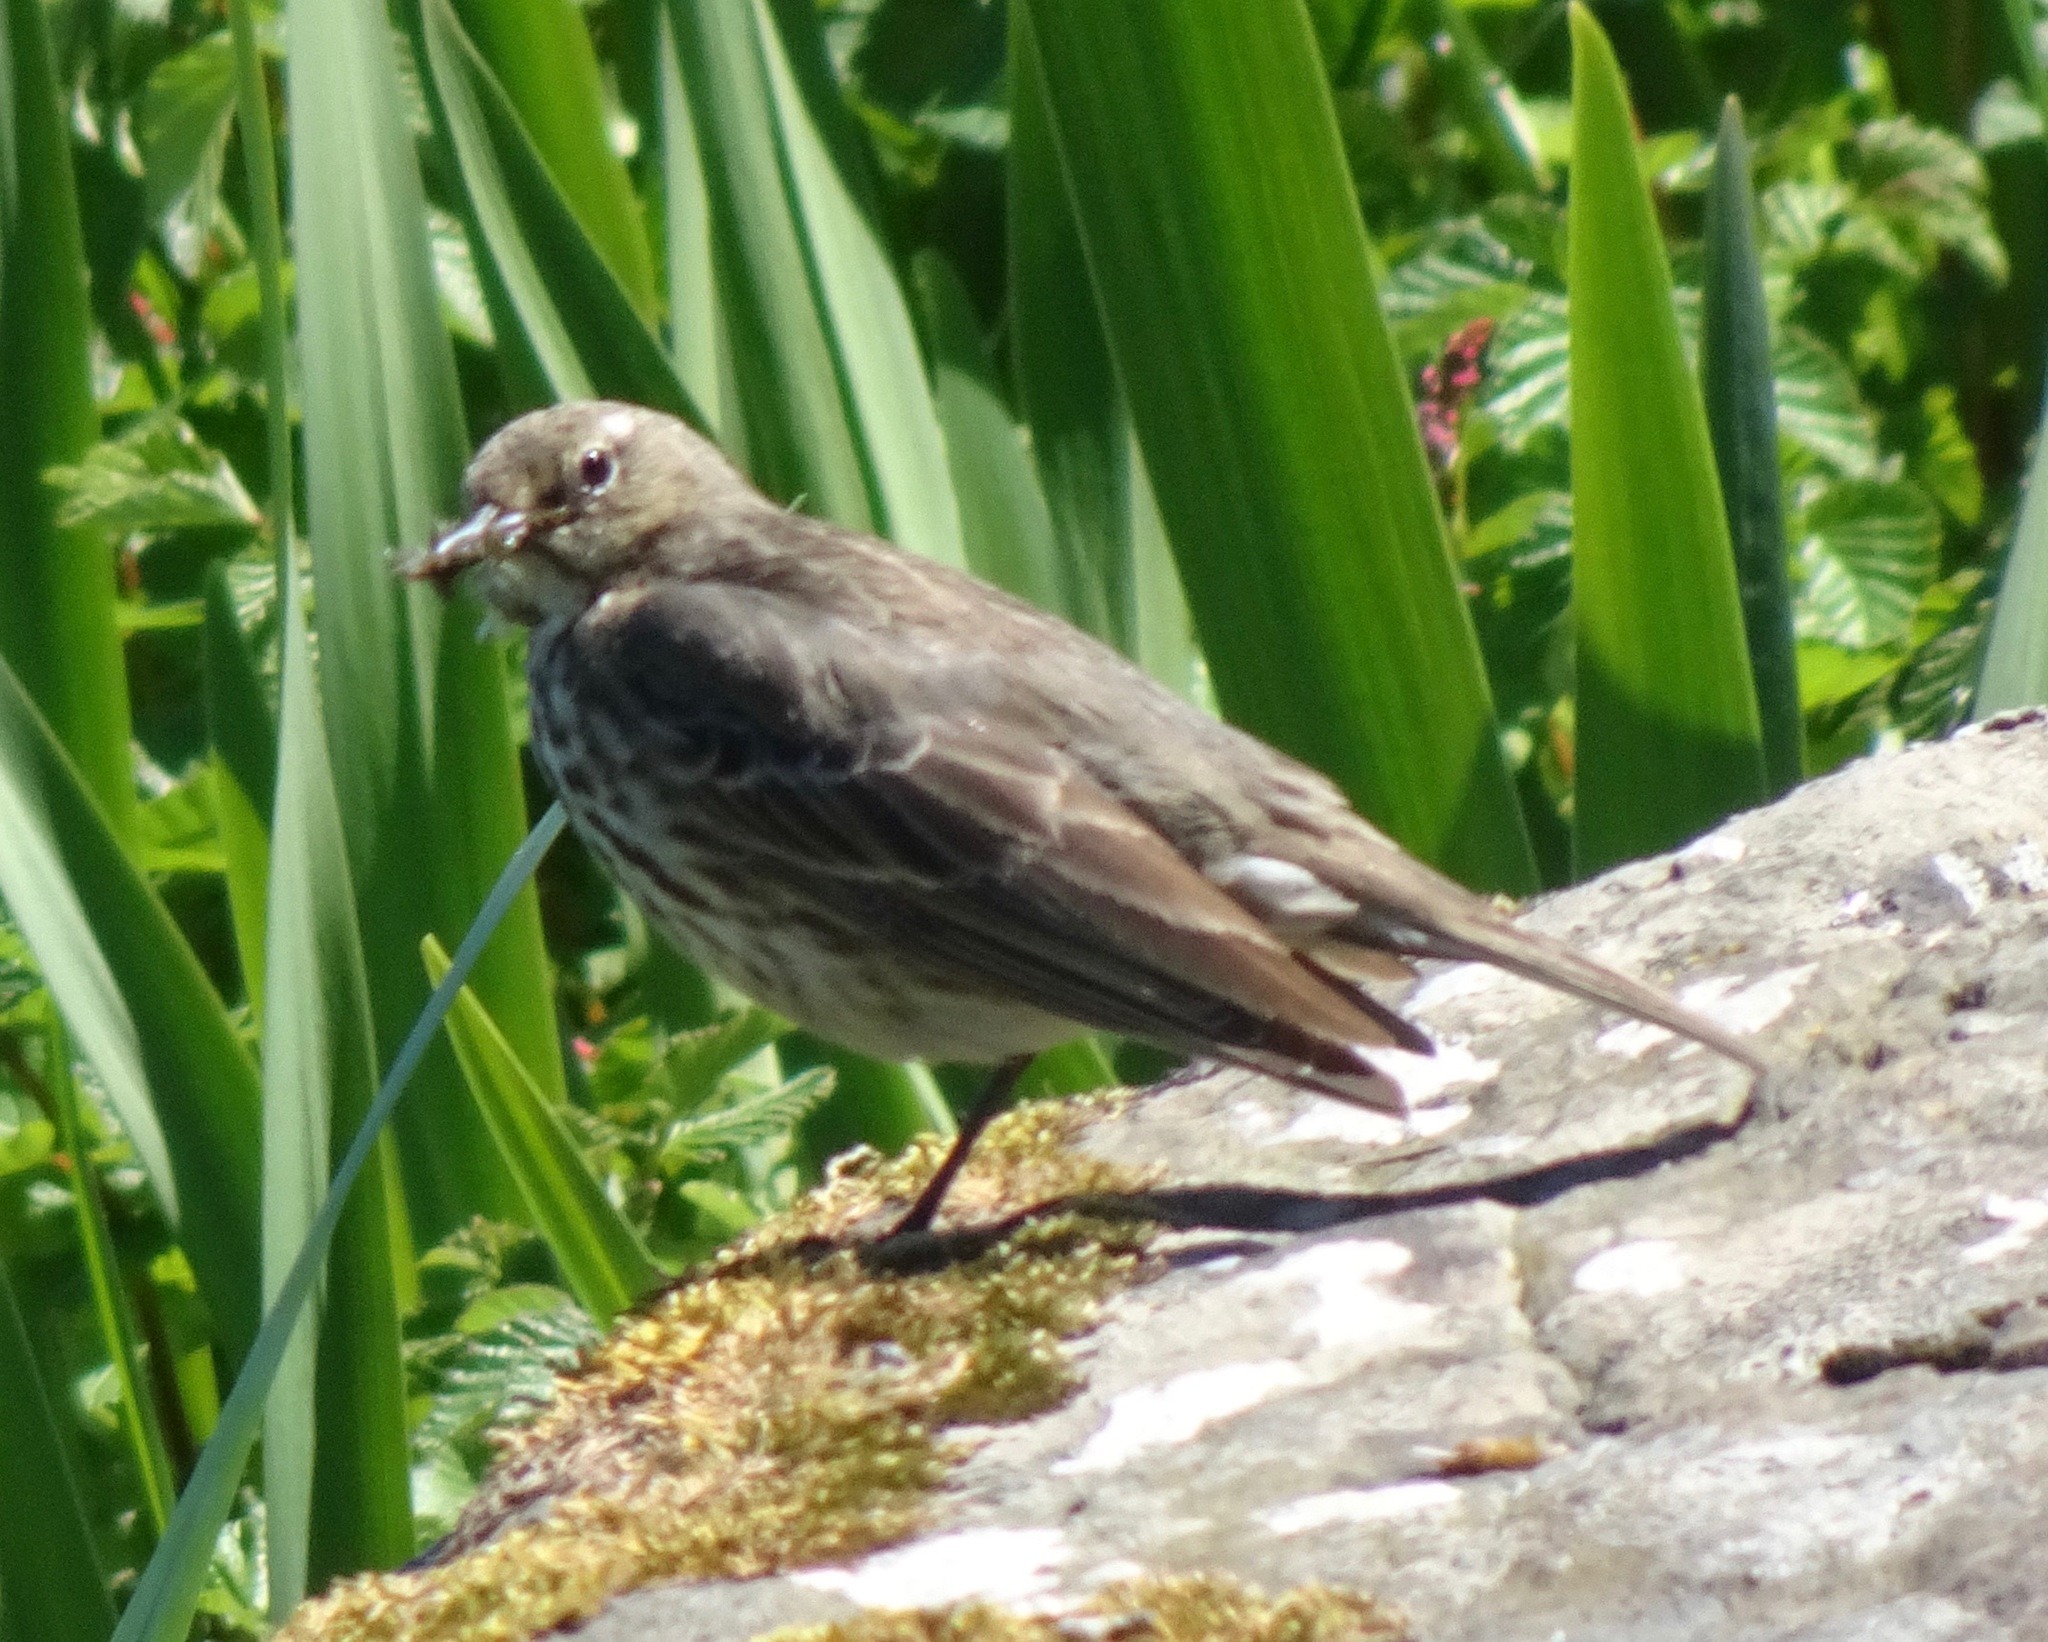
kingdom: Animalia
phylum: Chordata
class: Aves
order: Passeriformes
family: Motacillidae
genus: Anthus
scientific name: Anthus petrosus
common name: Eurasian rock pipit
